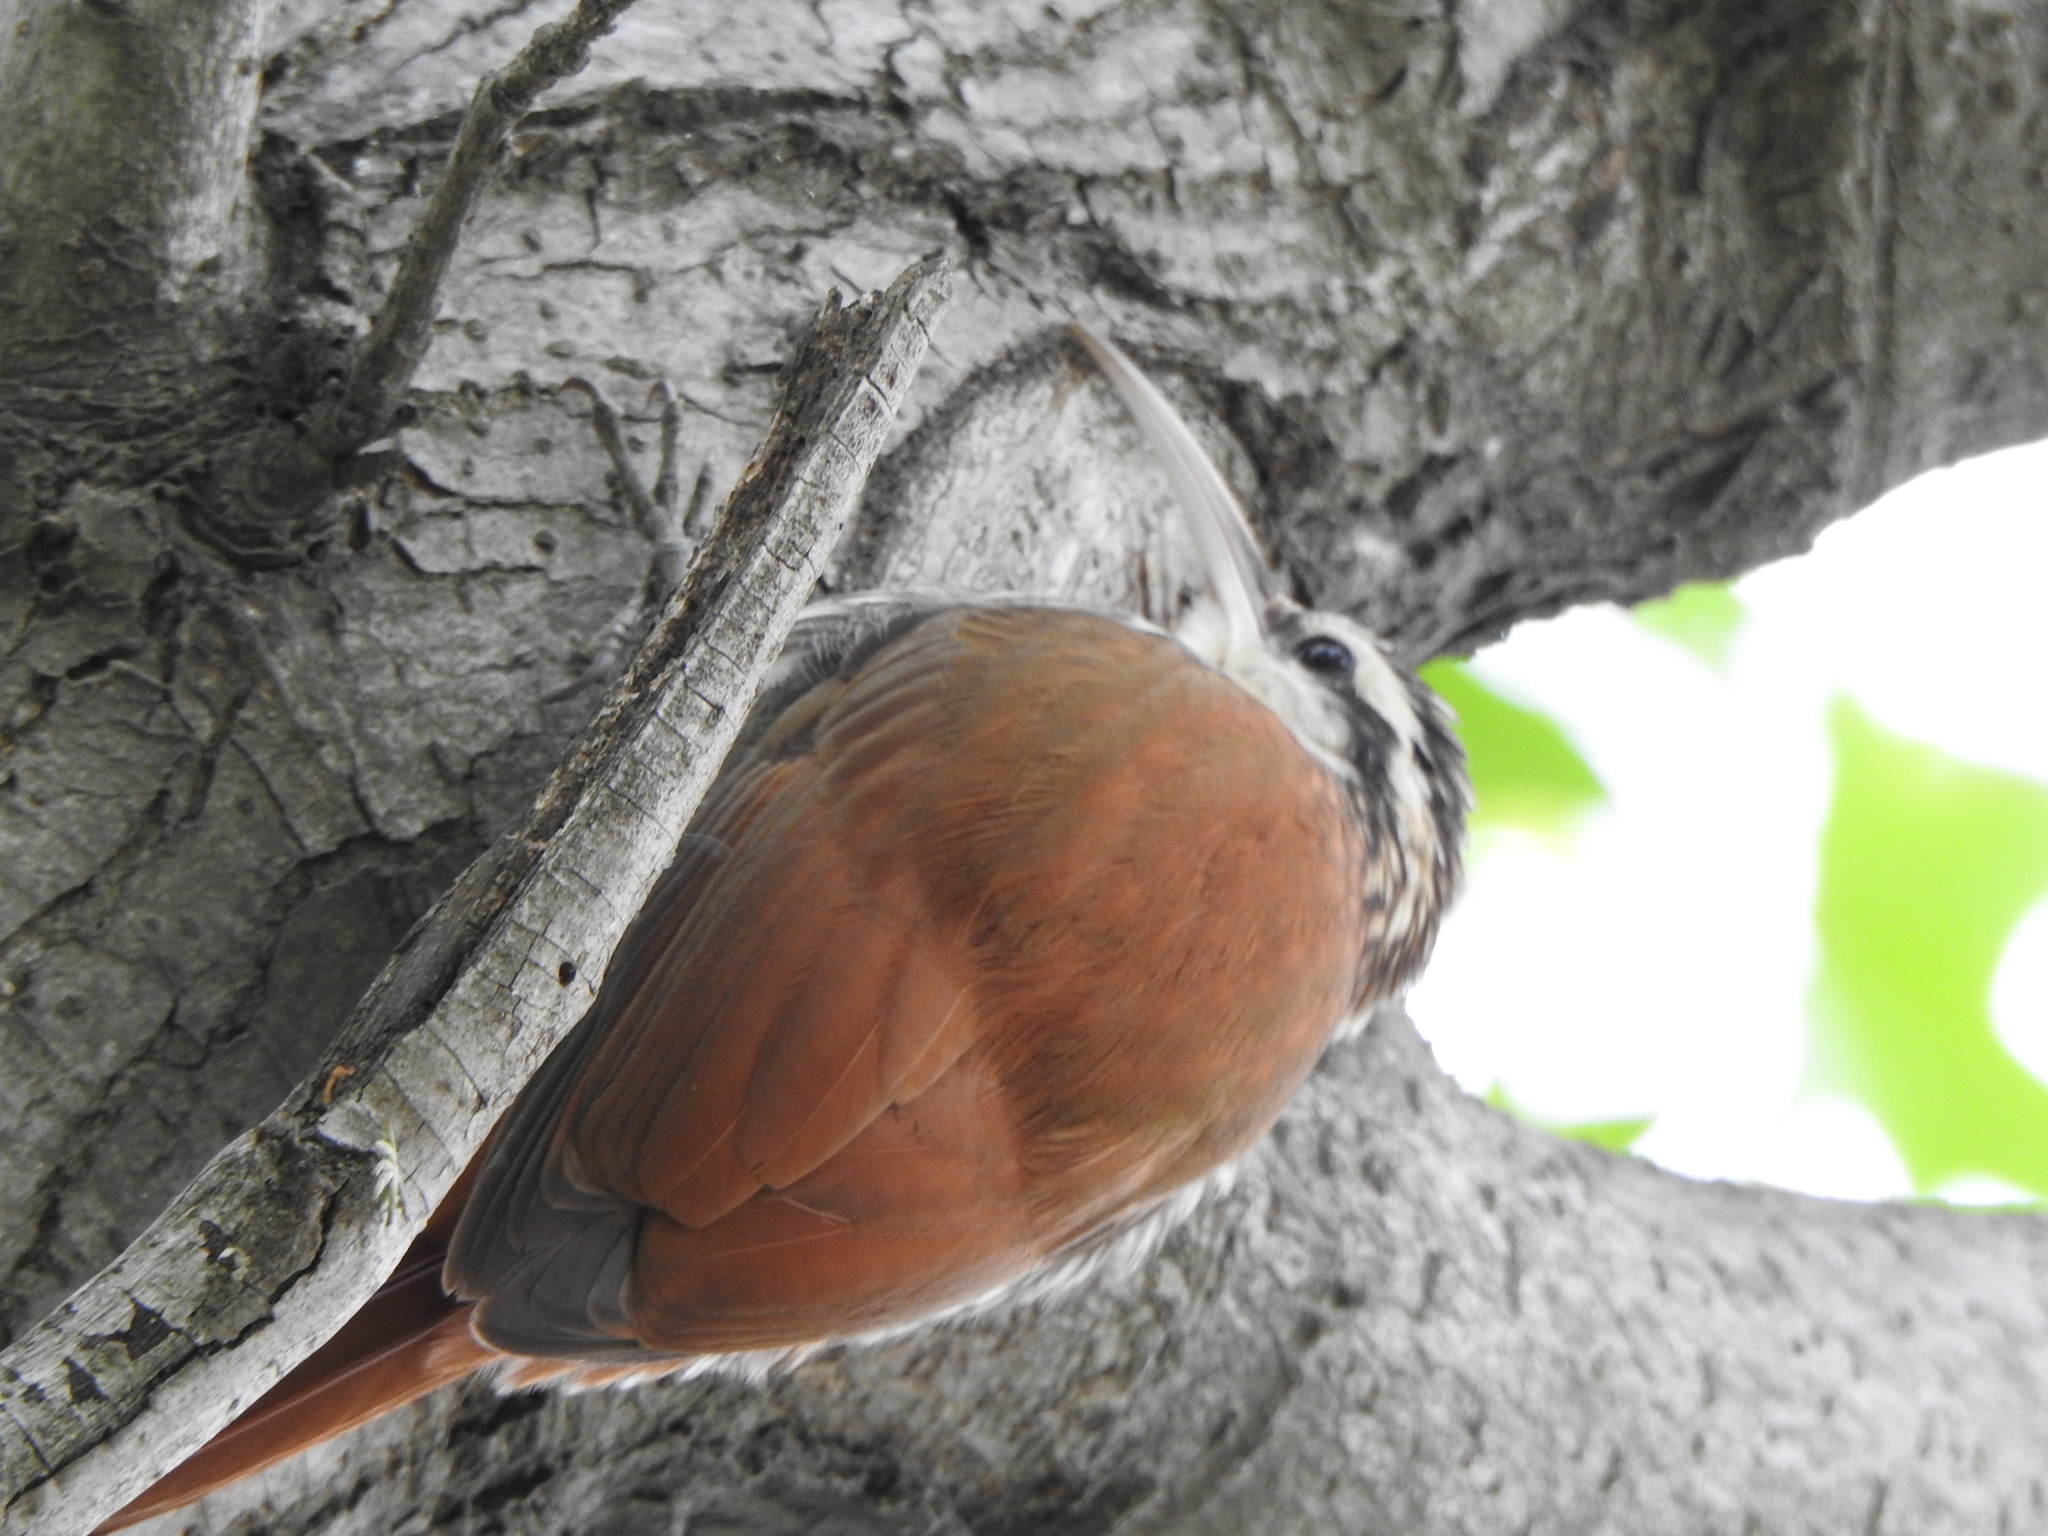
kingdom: Animalia
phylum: Chordata
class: Aves
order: Passeriformes
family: Furnariidae
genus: Lepidocolaptes
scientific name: Lepidocolaptes angustirostris
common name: Narrow-billed woodcreeper
